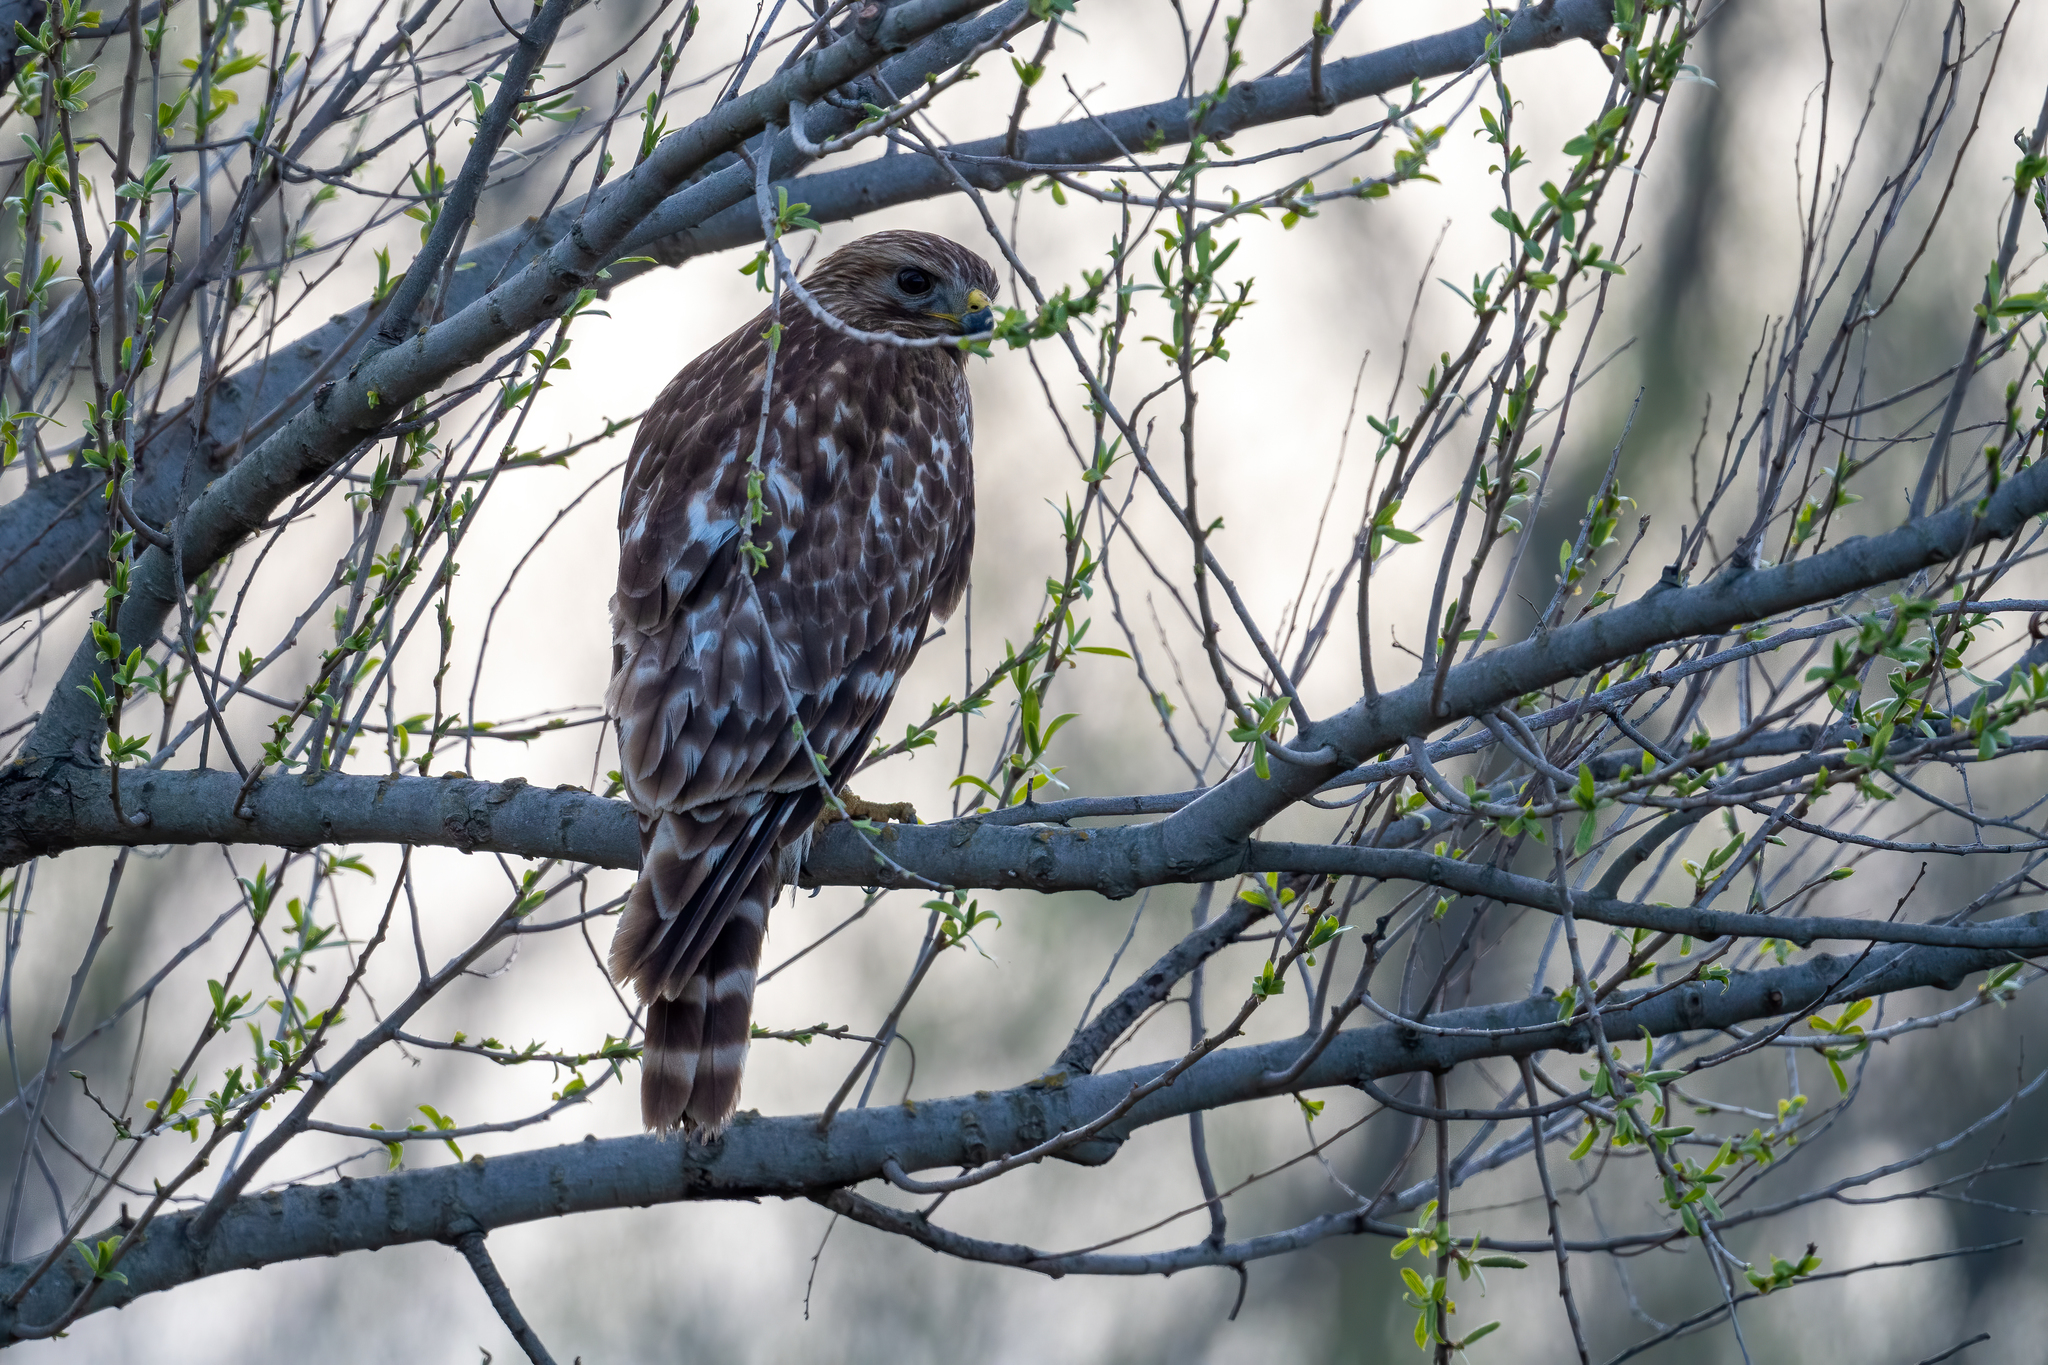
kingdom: Animalia
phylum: Chordata
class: Aves
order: Accipitriformes
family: Accipitridae
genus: Buteo
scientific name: Buteo lineatus
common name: Red-shouldered hawk
